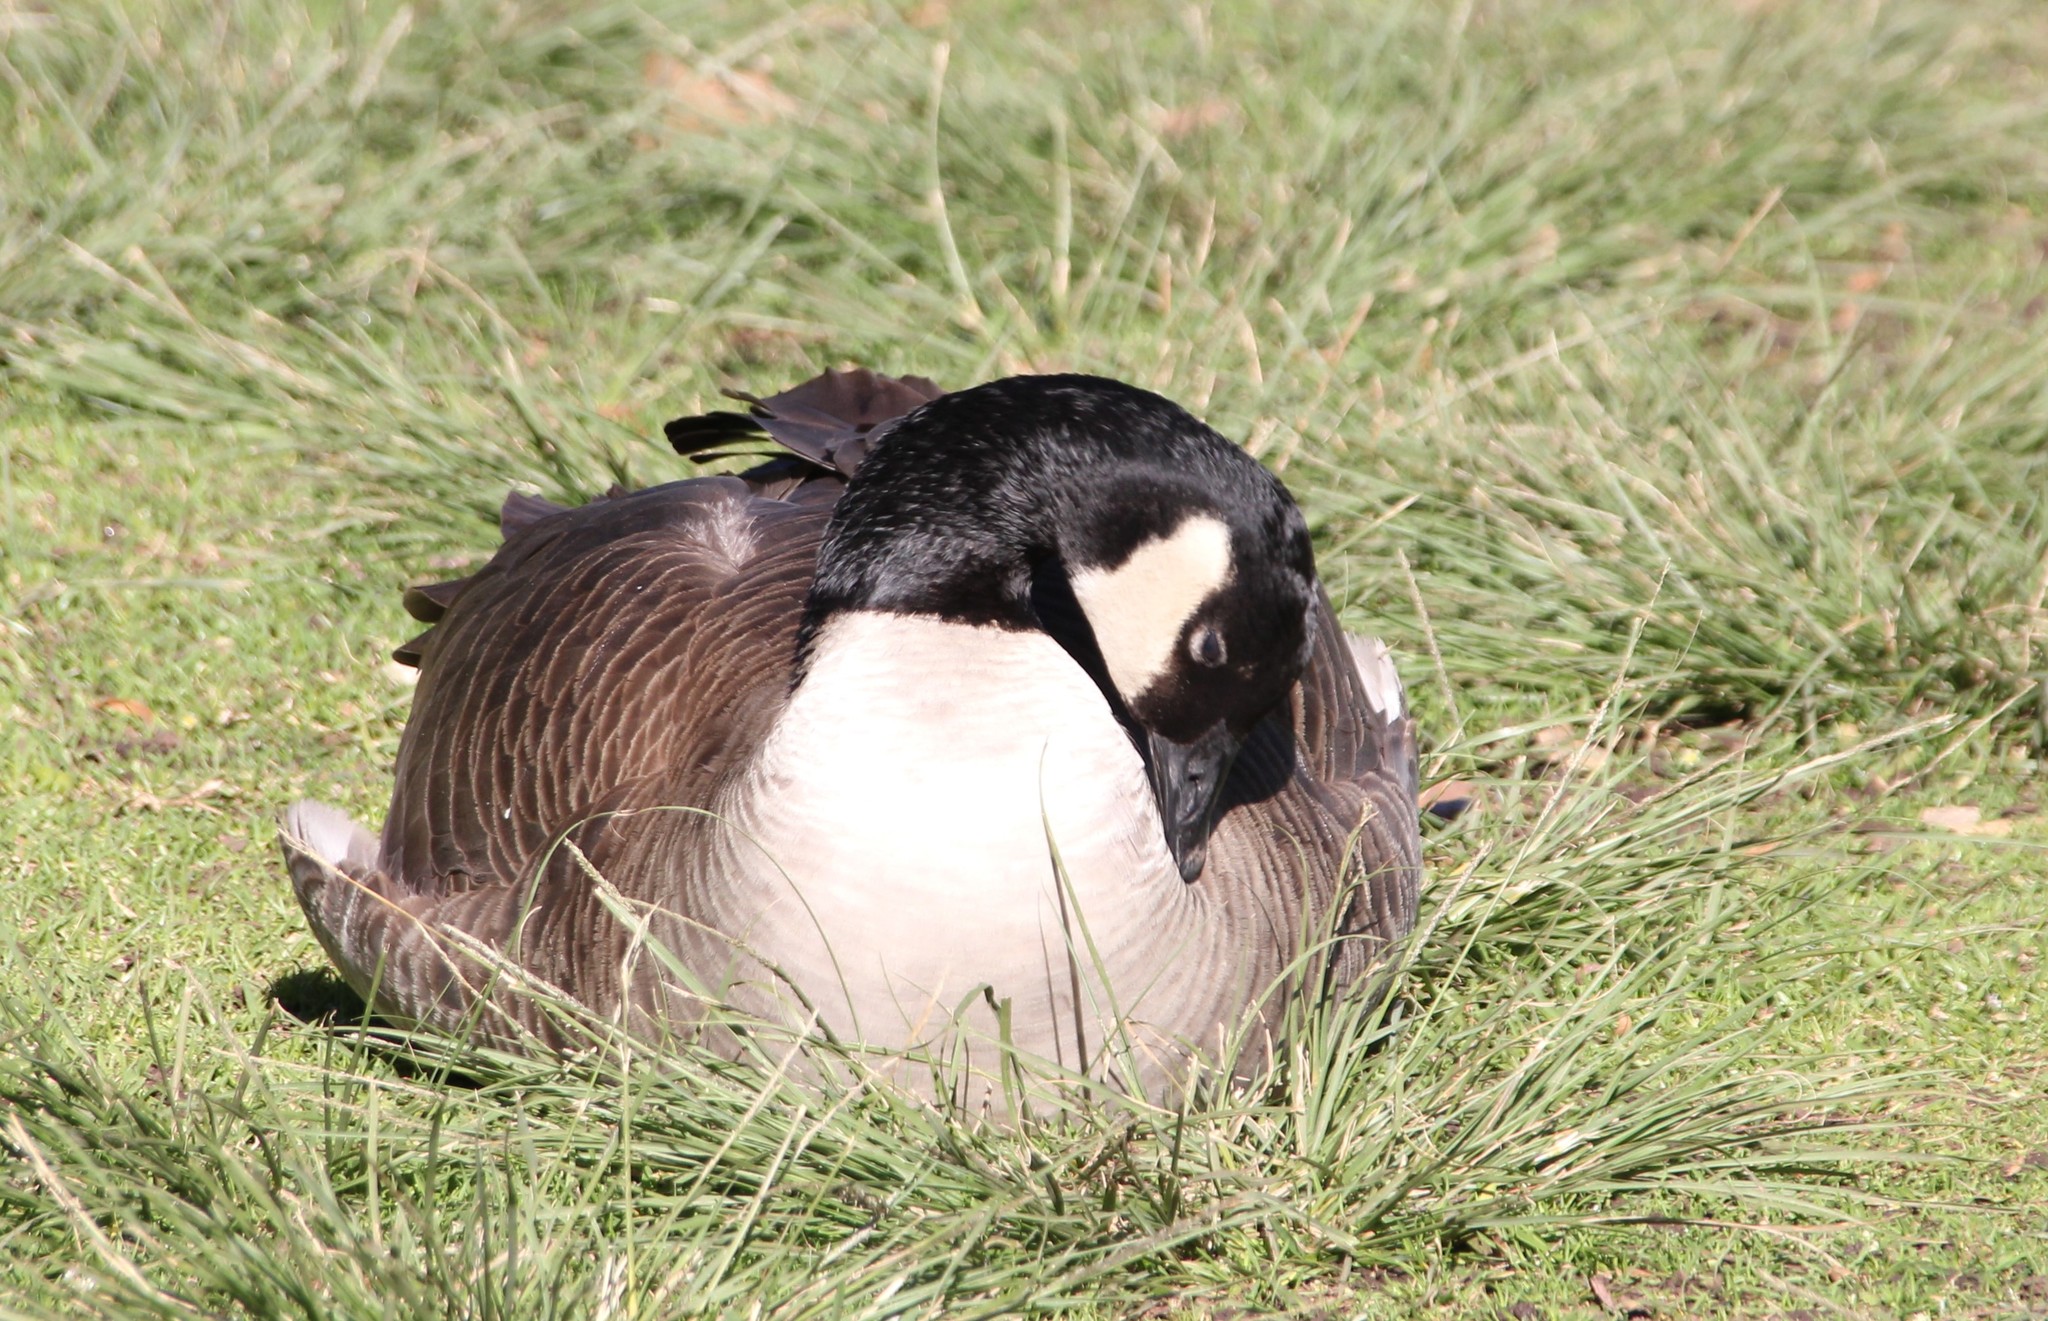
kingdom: Animalia
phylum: Chordata
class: Aves
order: Anseriformes
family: Anatidae
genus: Branta
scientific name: Branta canadensis
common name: Canada goose
